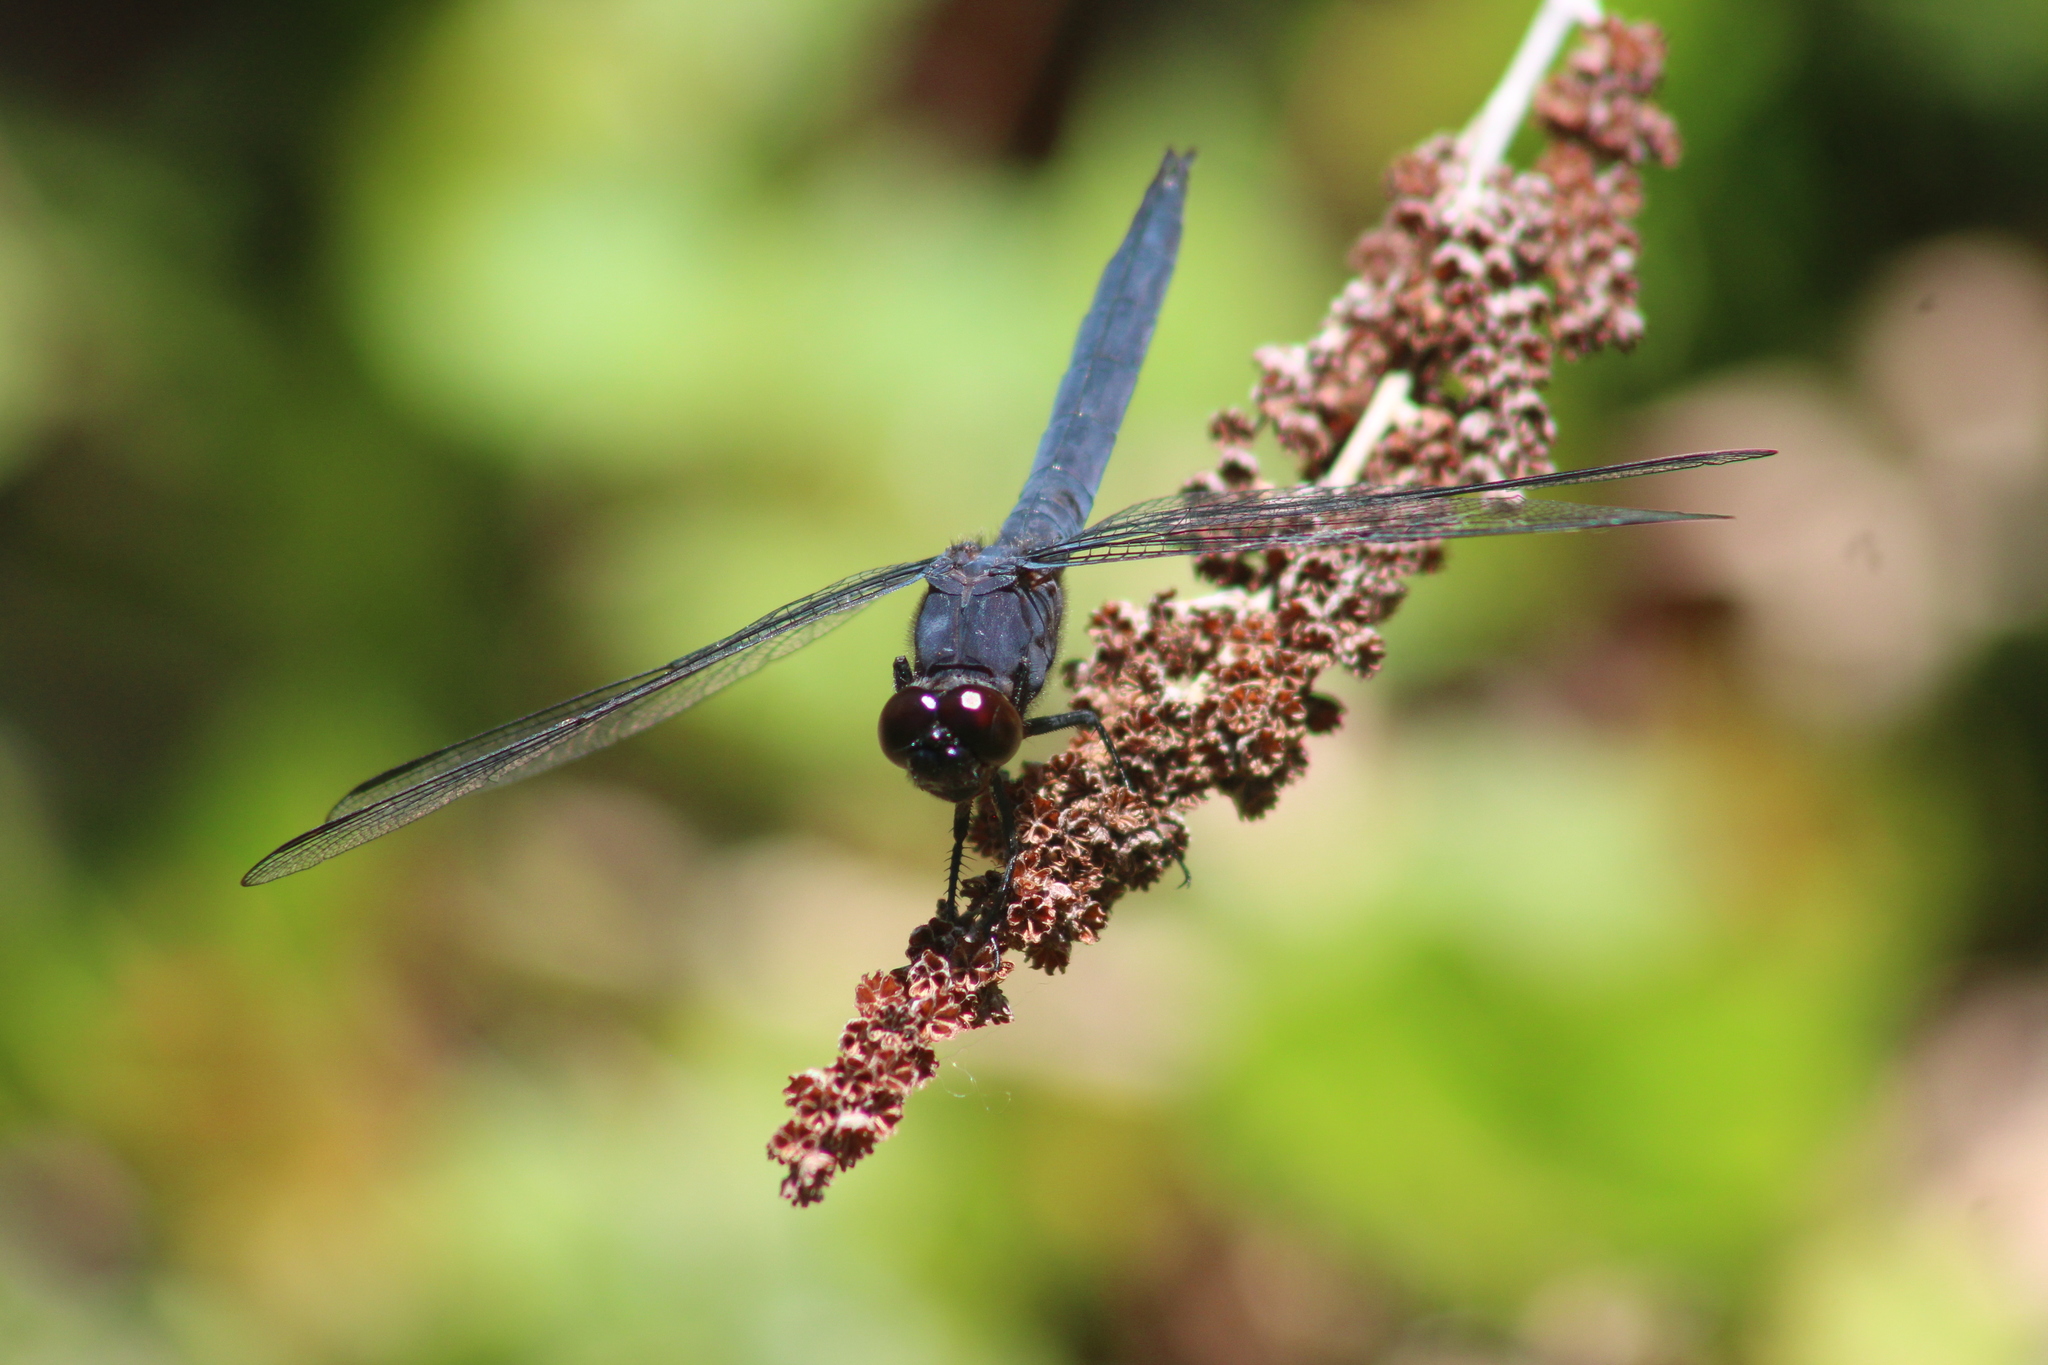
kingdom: Animalia
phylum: Arthropoda
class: Insecta
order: Odonata
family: Libellulidae
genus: Libellula
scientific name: Libellula incesta
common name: Slaty skimmer
